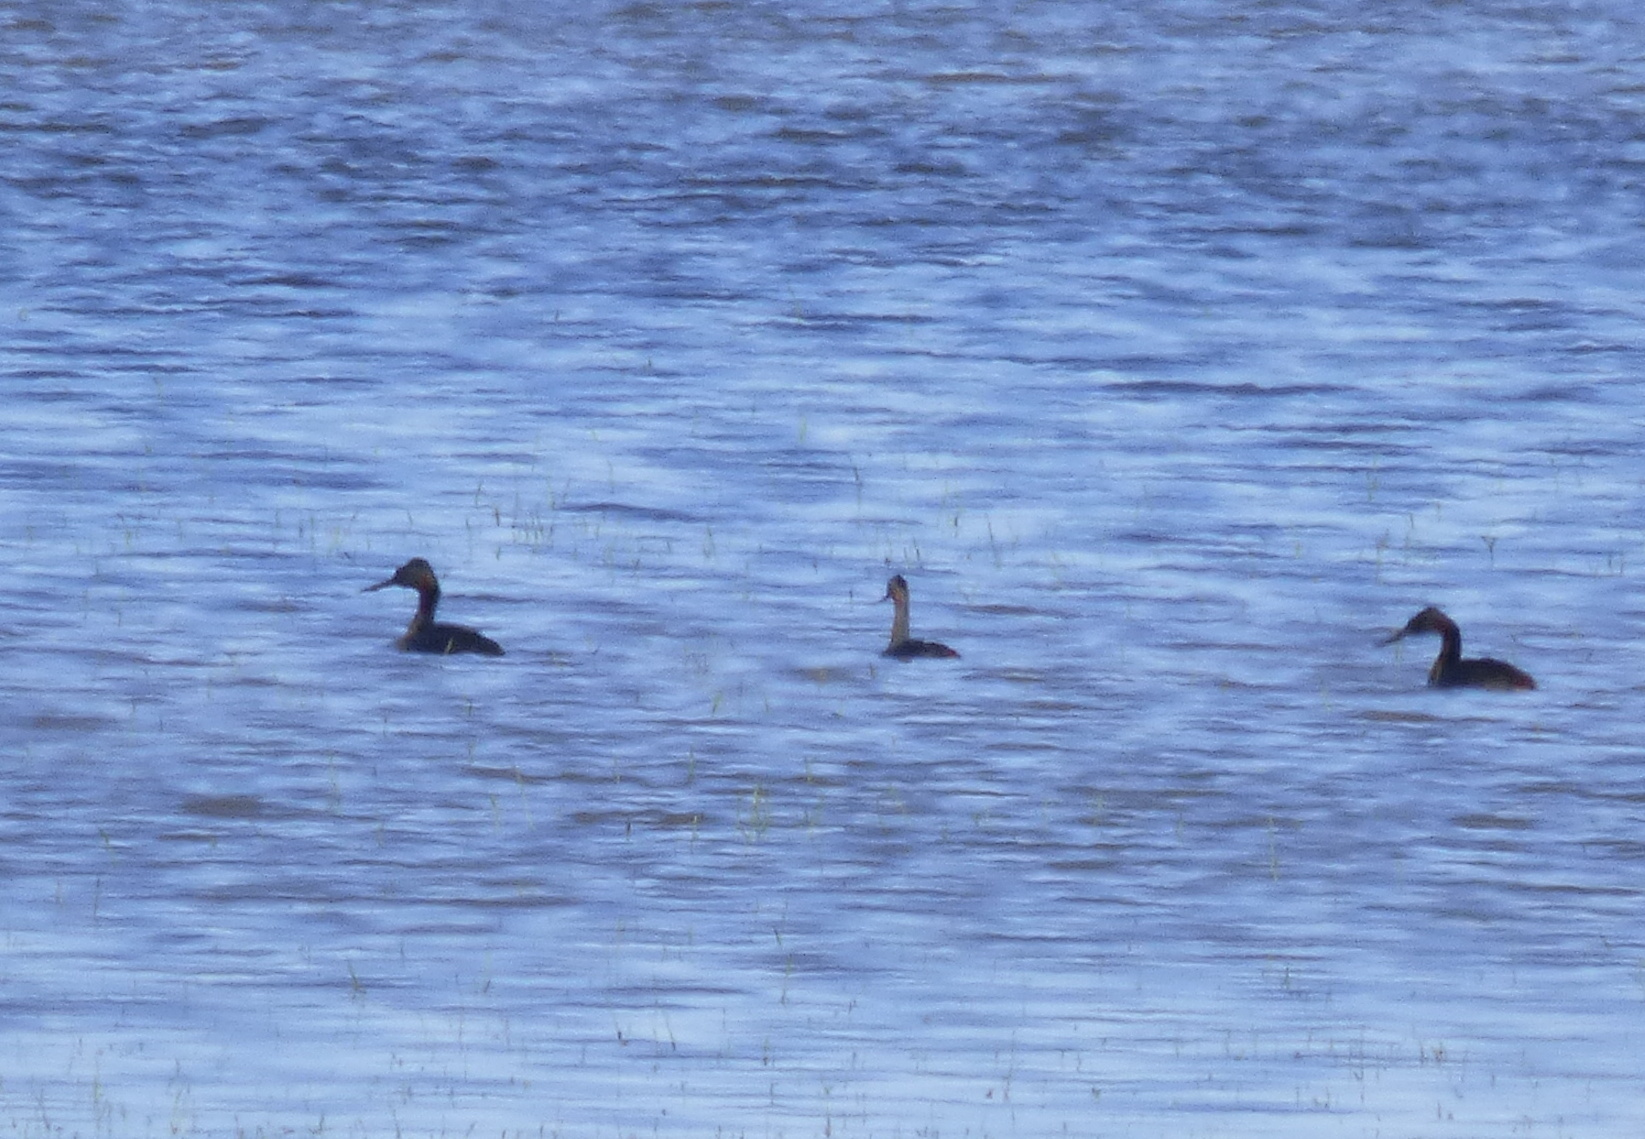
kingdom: Animalia
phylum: Chordata
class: Aves
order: Podicipediformes
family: Podicipedidae
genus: Podiceps
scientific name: Podiceps major
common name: Great grebe
